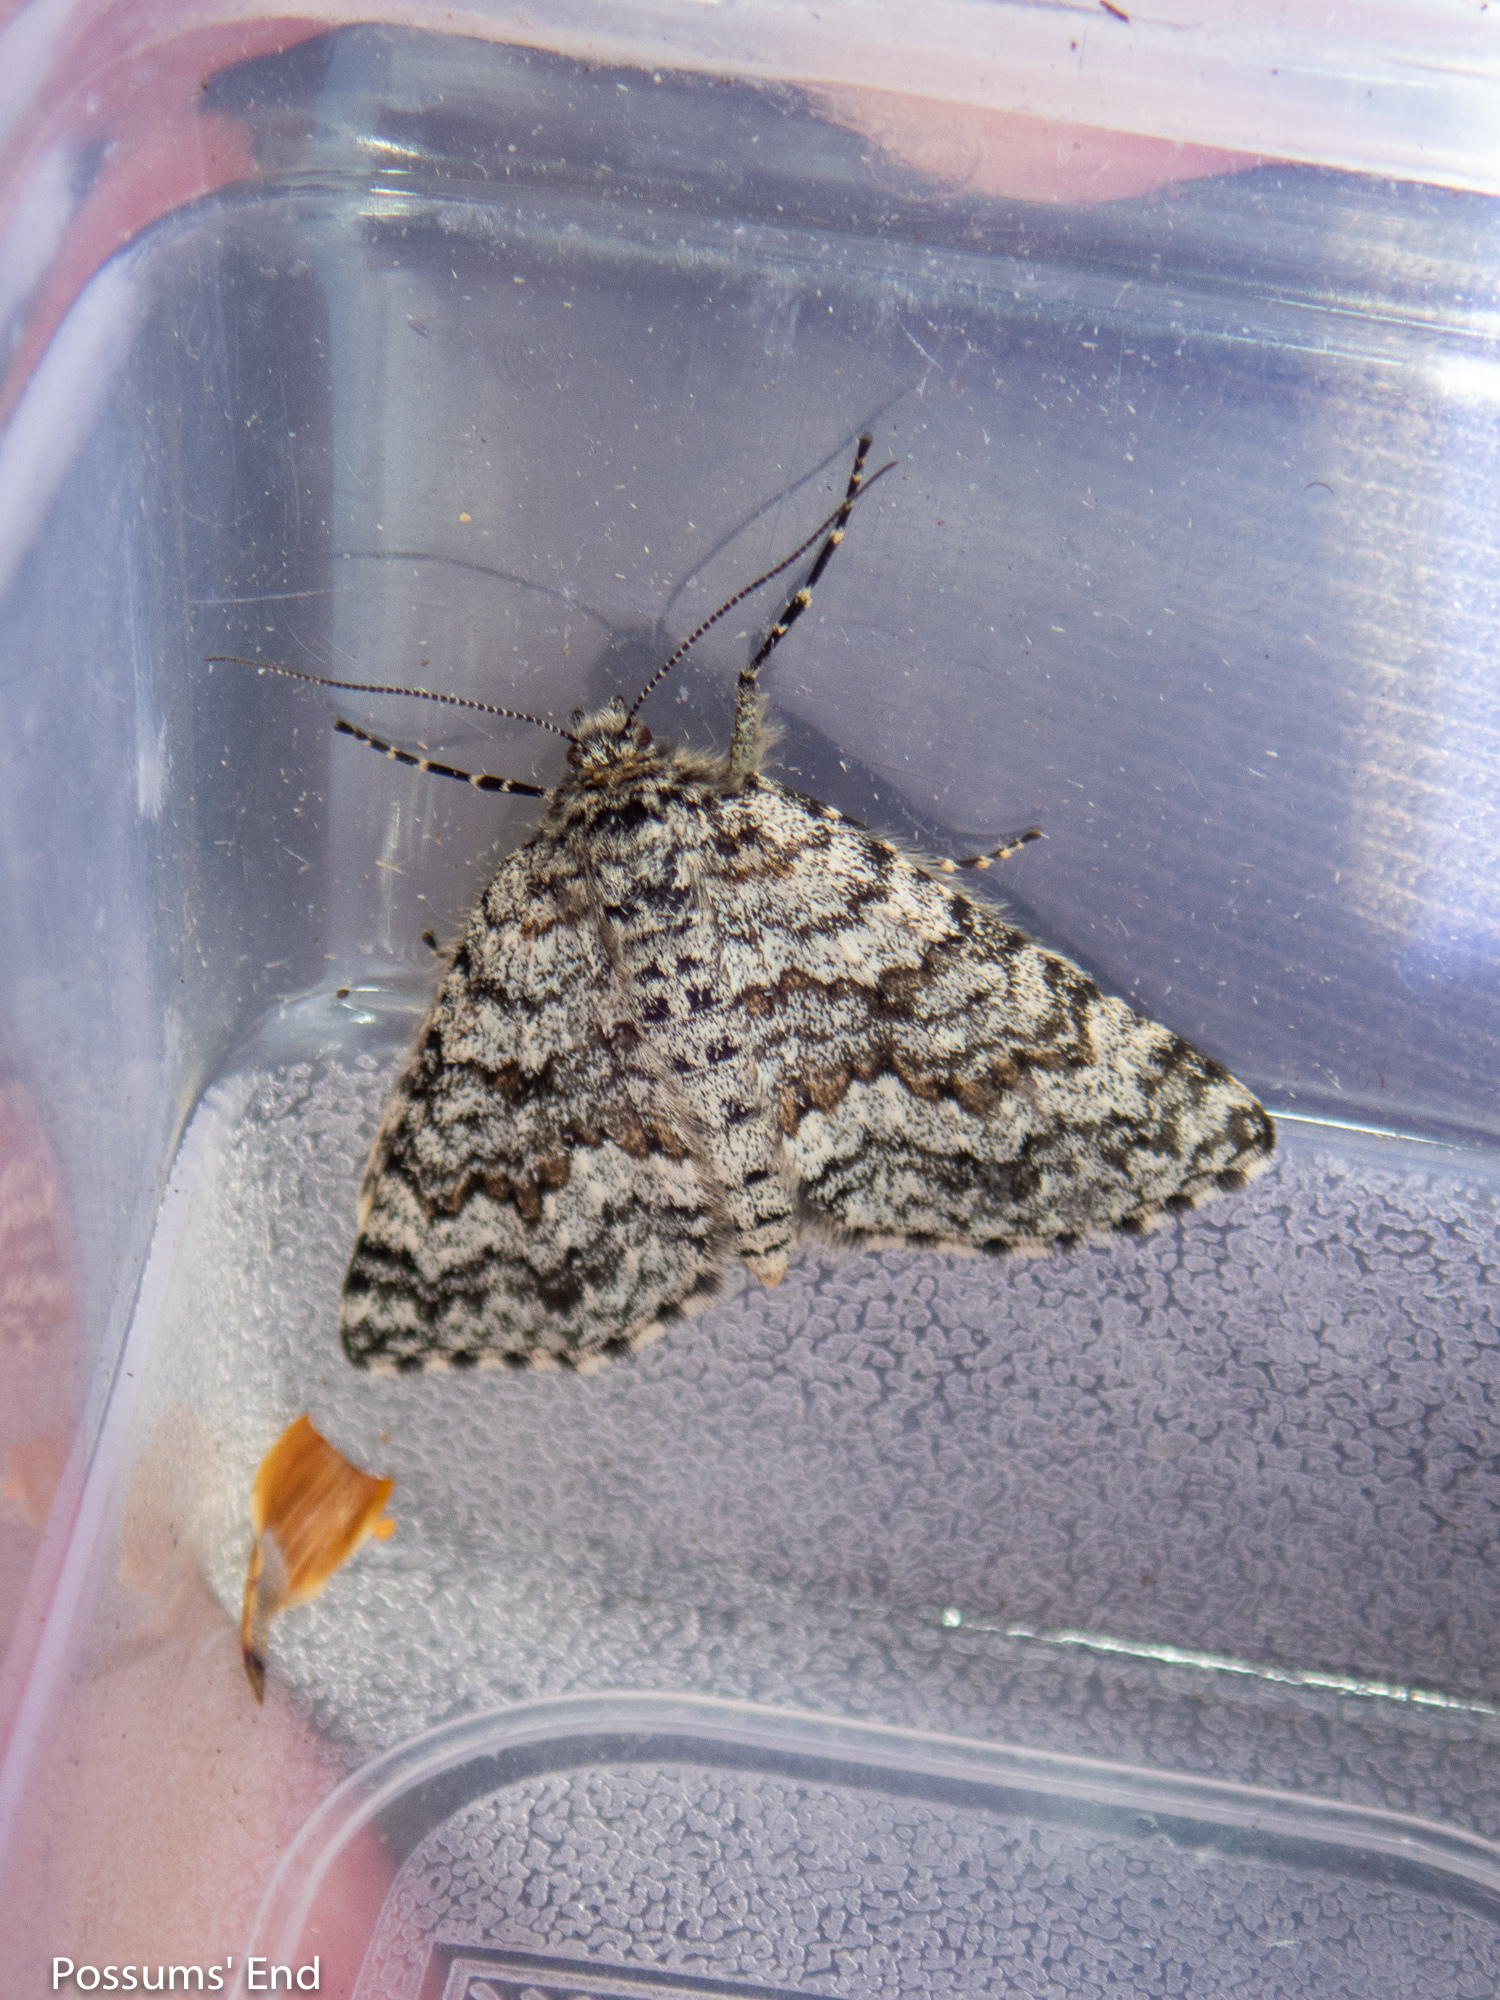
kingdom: Animalia
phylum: Arthropoda
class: Insecta
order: Lepidoptera
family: Geometridae
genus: Aponotoreas
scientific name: Aponotoreas orphnaea
